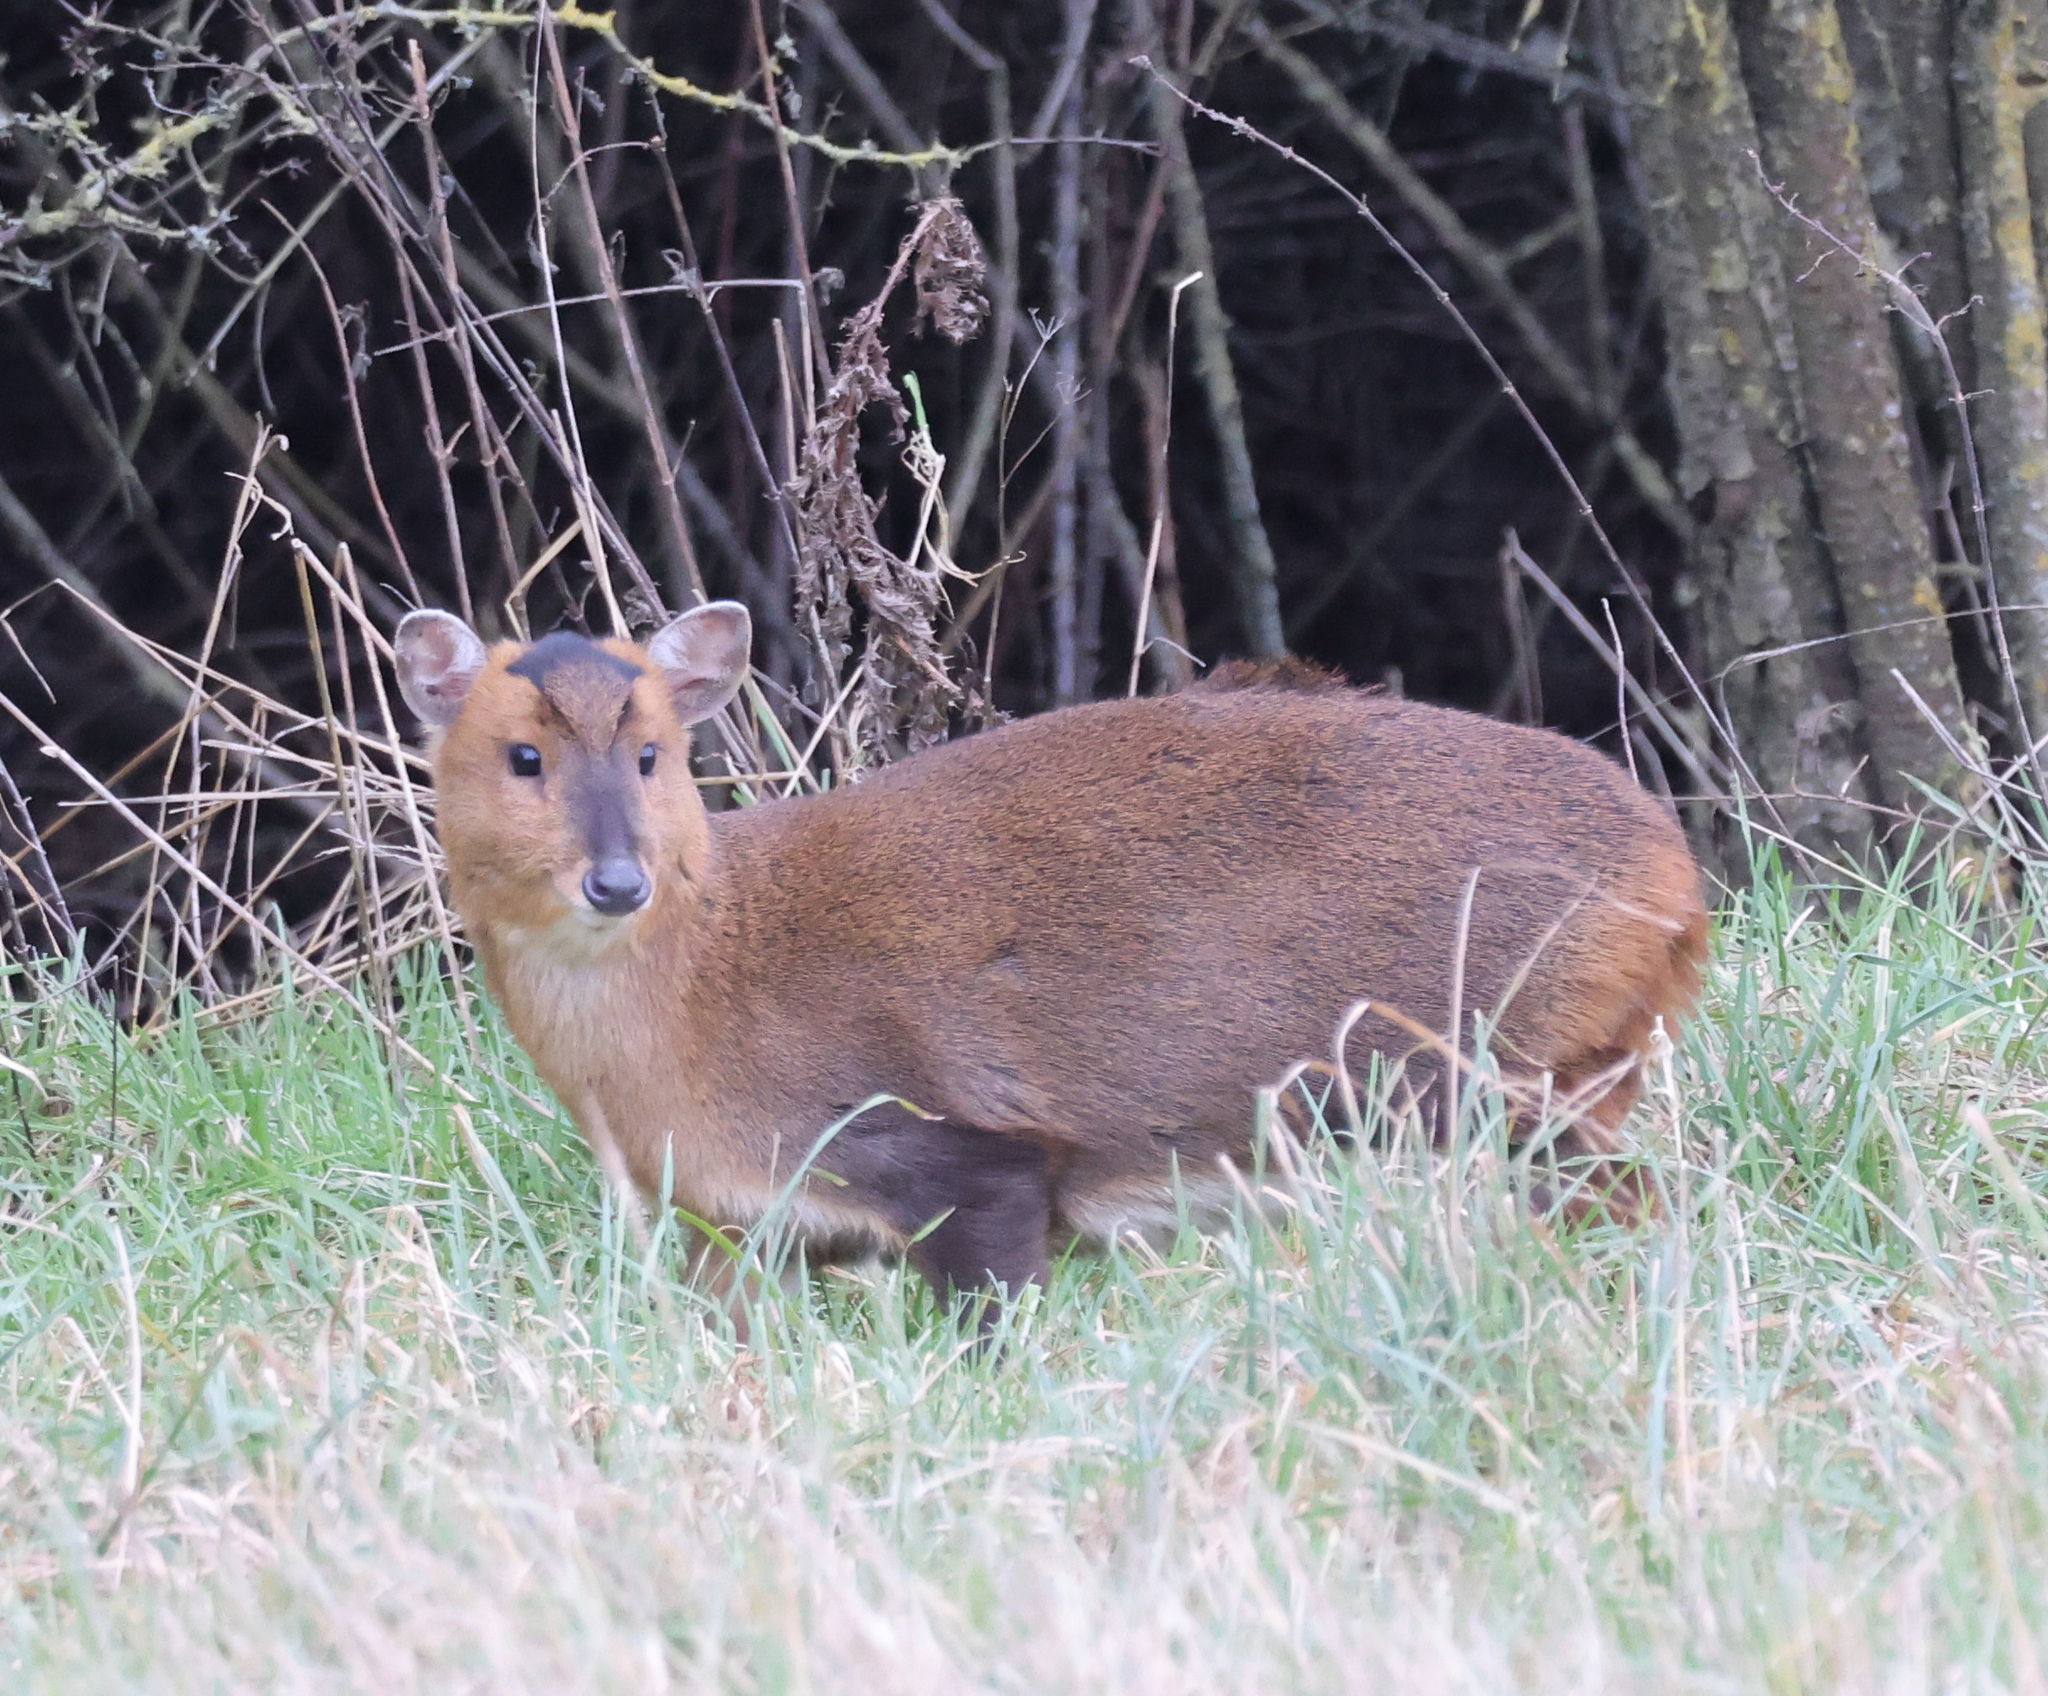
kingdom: Animalia
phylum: Chordata
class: Mammalia
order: Artiodactyla
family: Cervidae
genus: Muntiacus
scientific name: Muntiacus reevesi
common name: Reeves' muntjac
